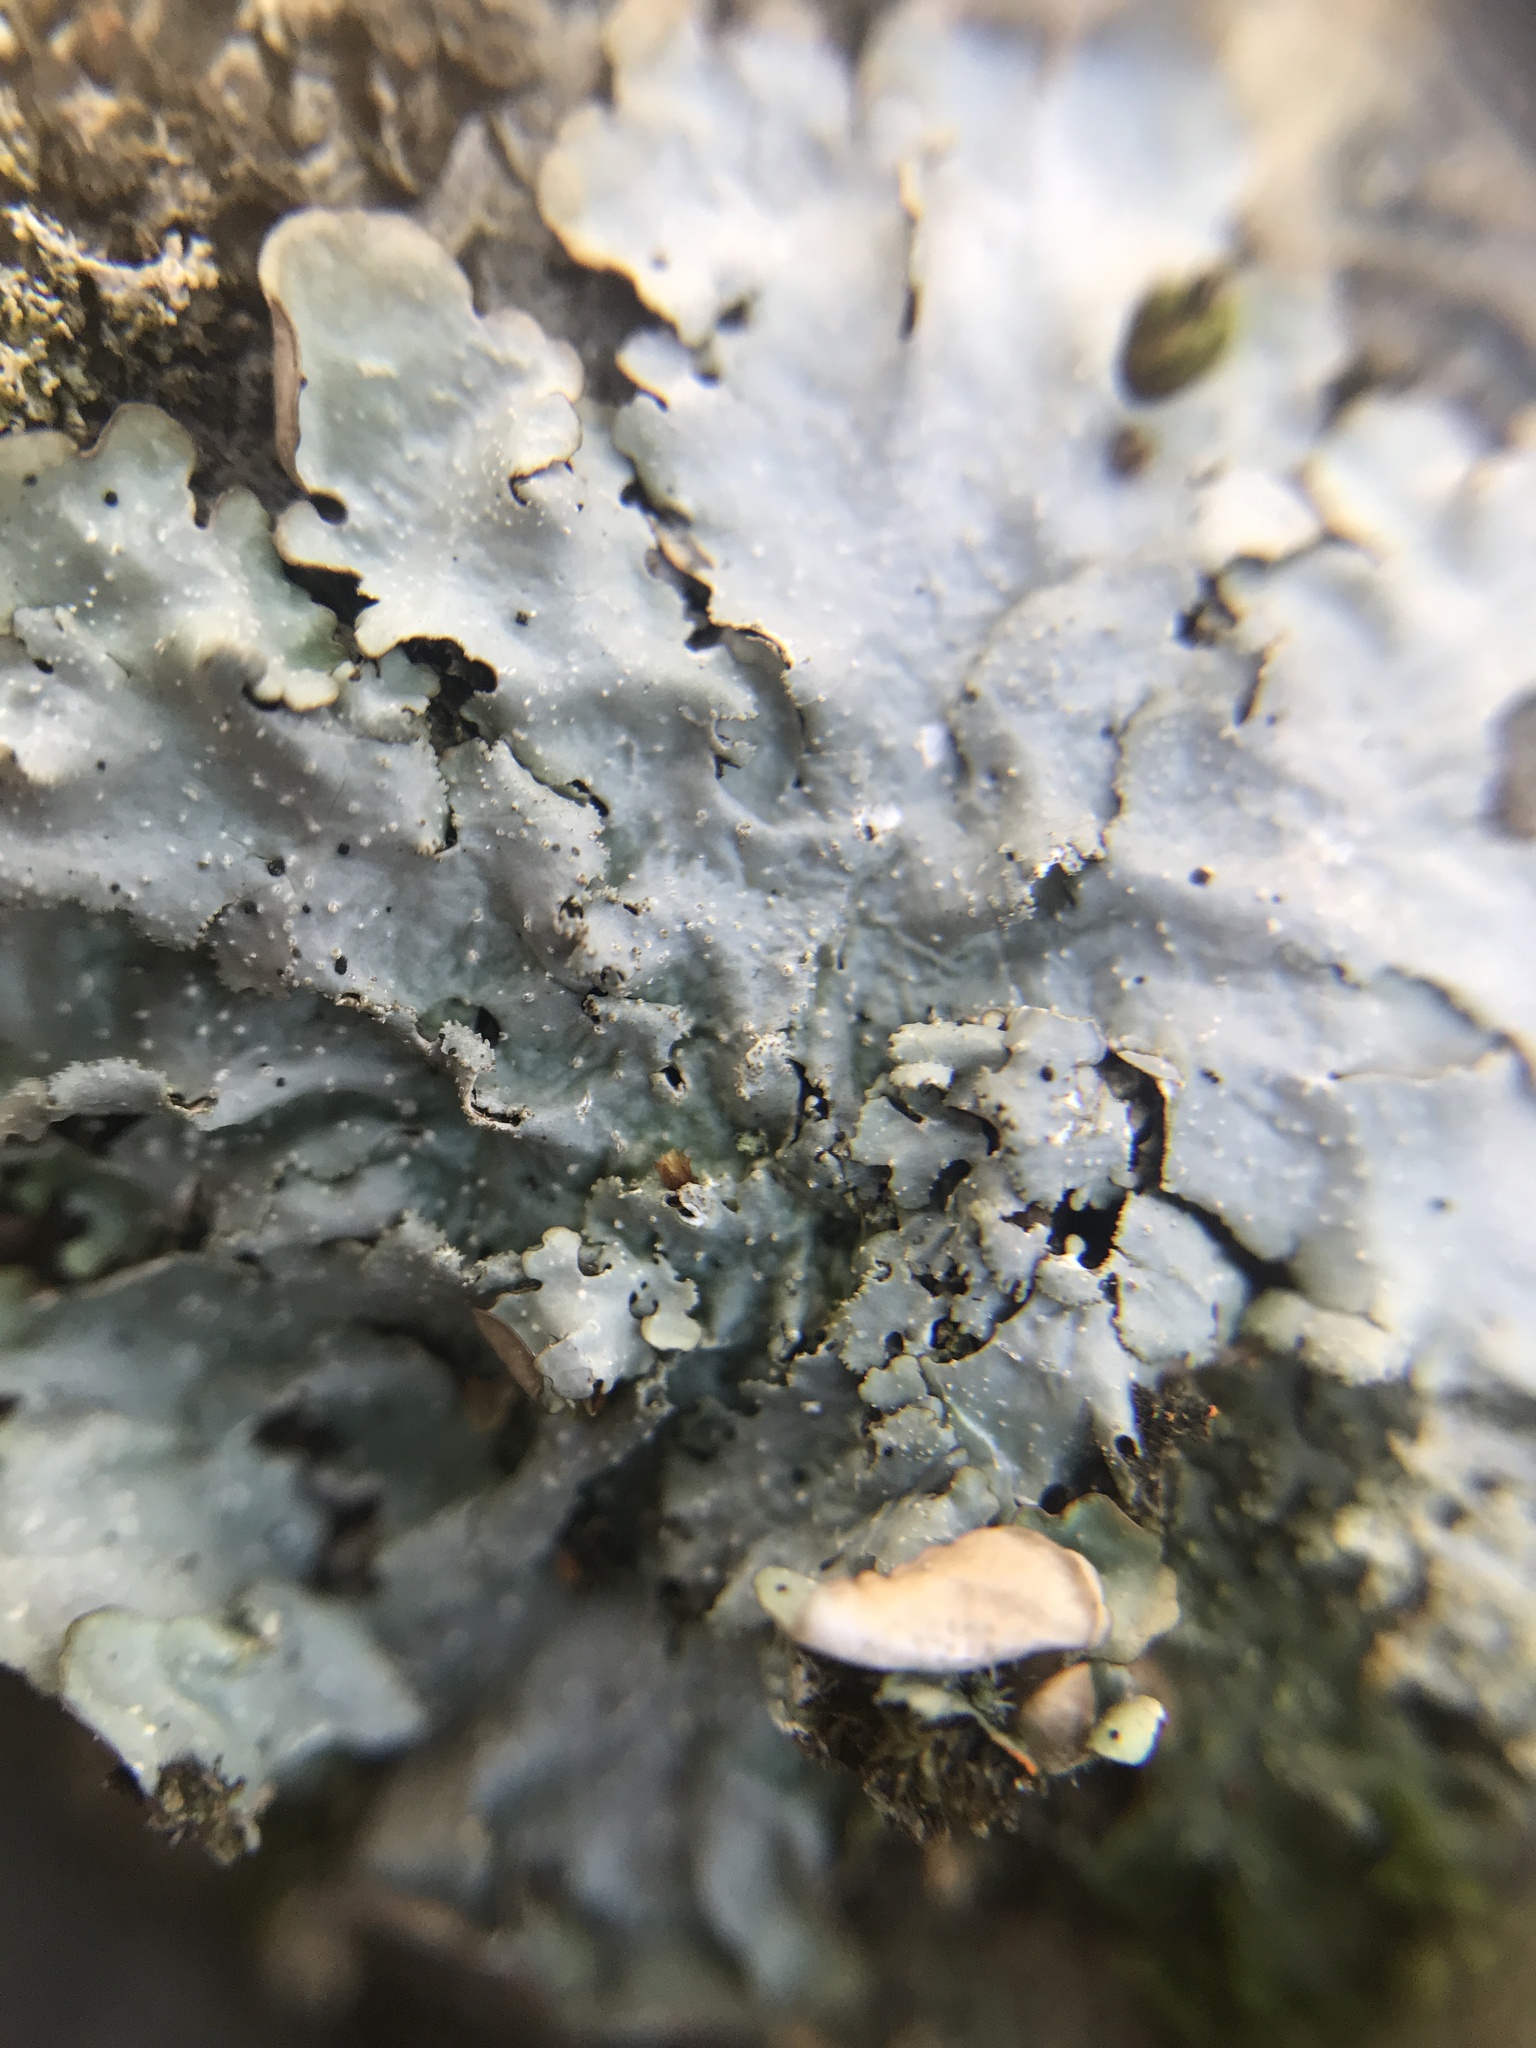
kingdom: Fungi
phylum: Ascomycota
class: Lecanoromycetes
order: Lecanorales
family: Parmeliaceae
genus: Punctelia
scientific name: Punctelia rudecta
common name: Rough speckled shield lichen
